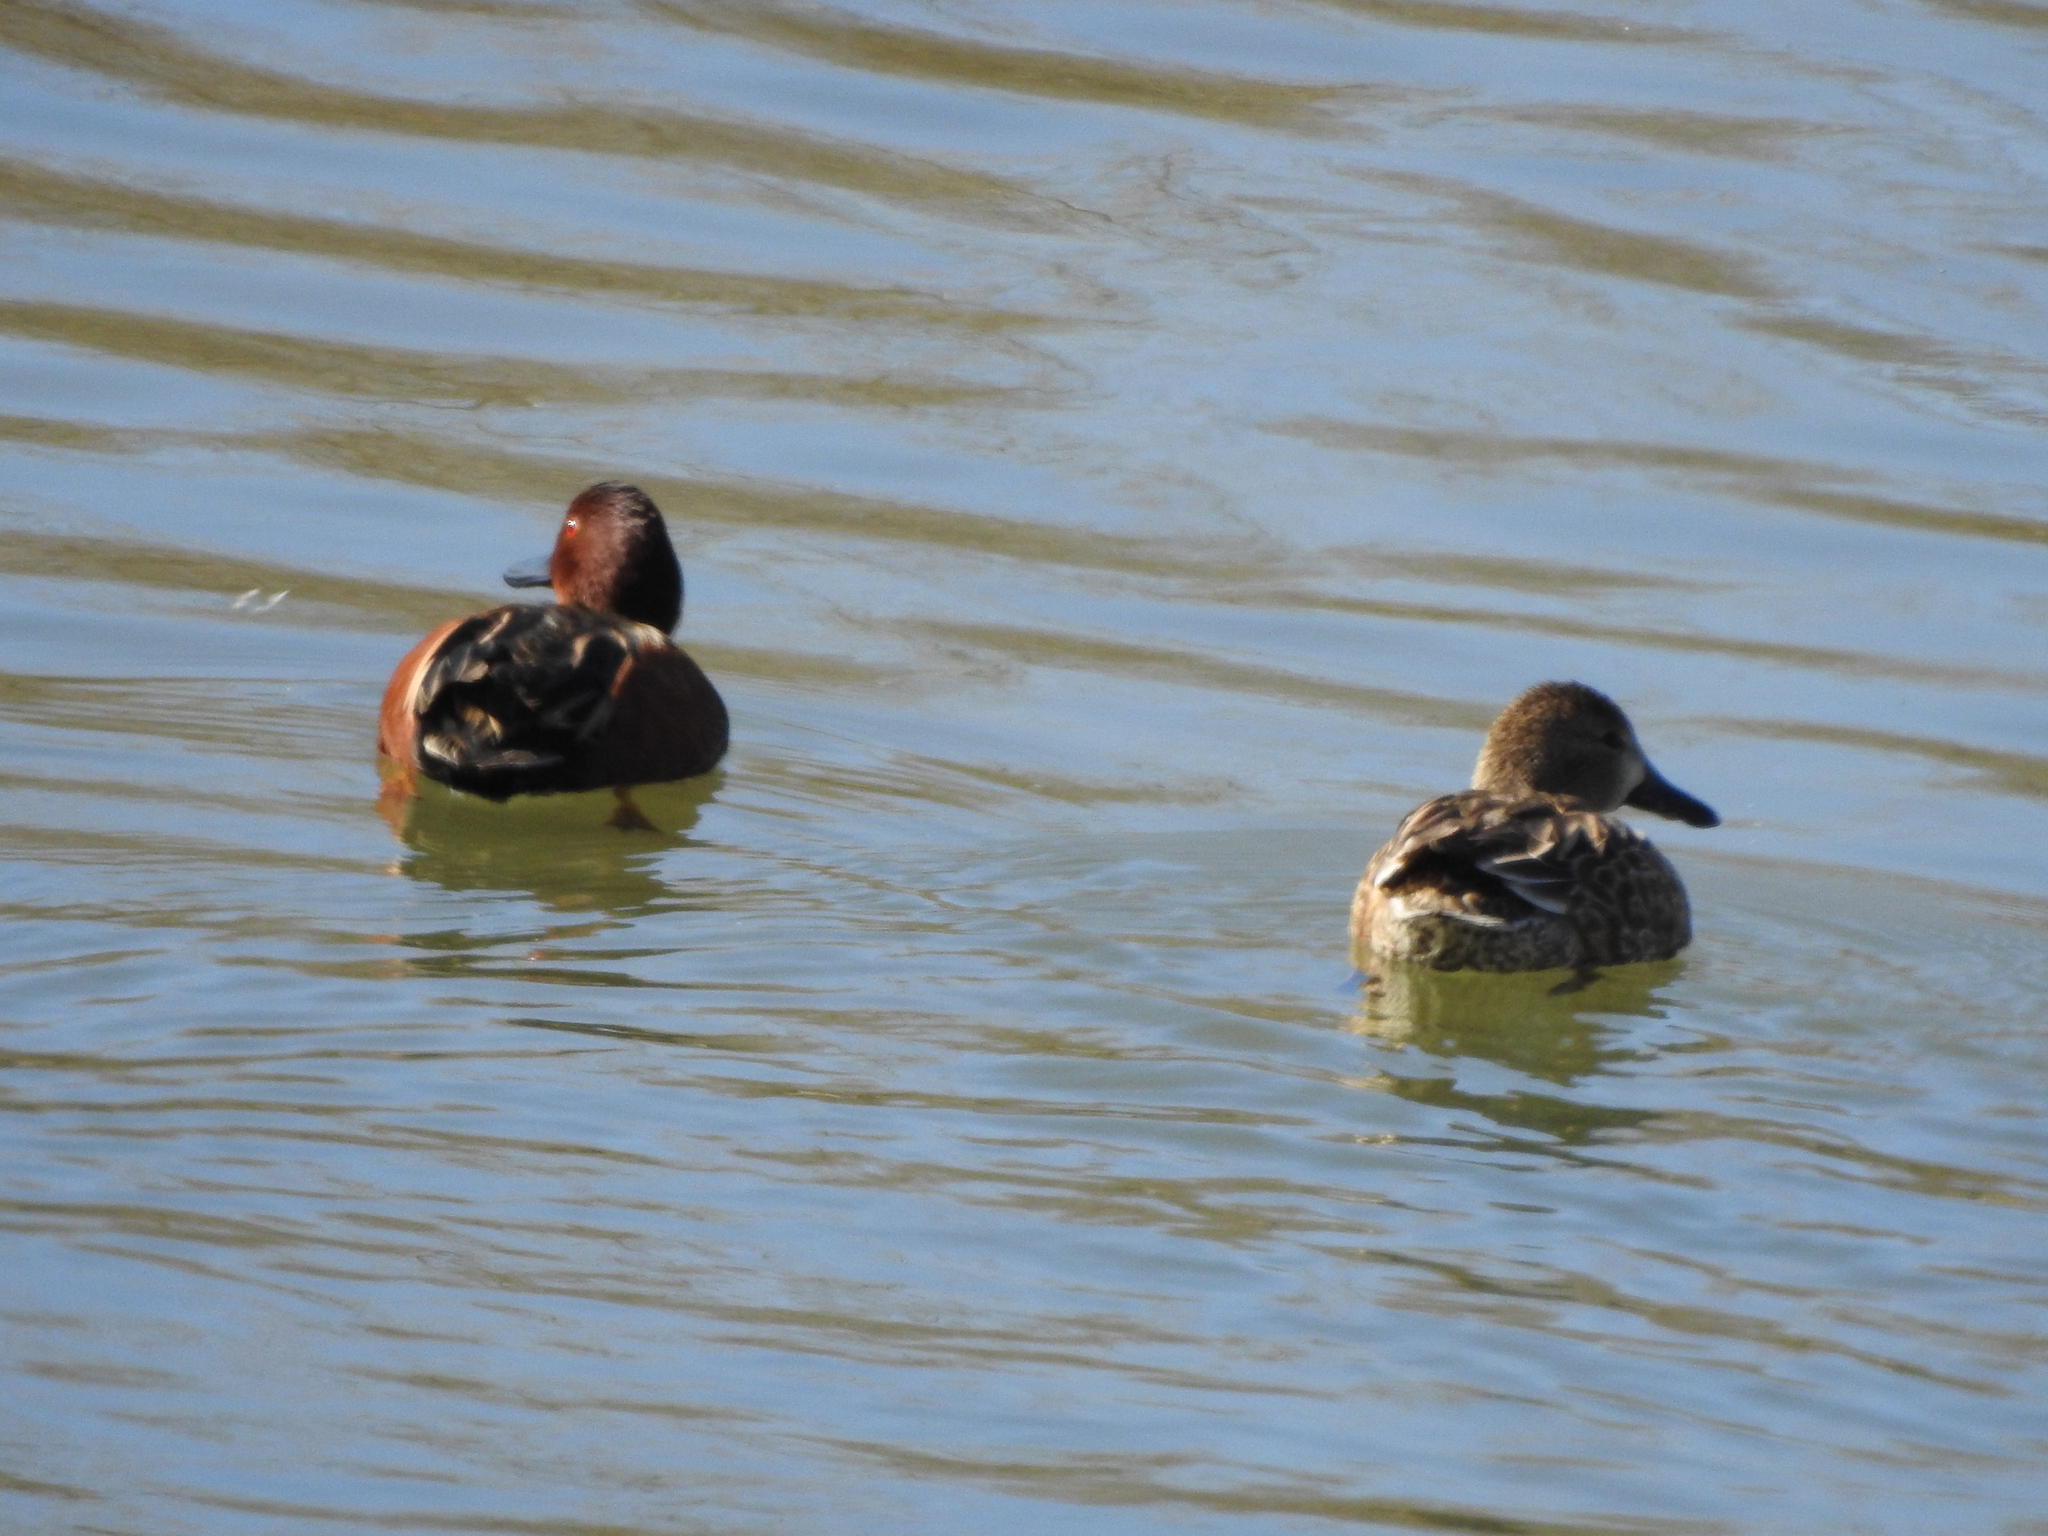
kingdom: Animalia
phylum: Chordata
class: Aves
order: Anseriformes
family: Anatidae
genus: Spatula
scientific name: Spatula cyanoptera
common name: Cinnamon teal
